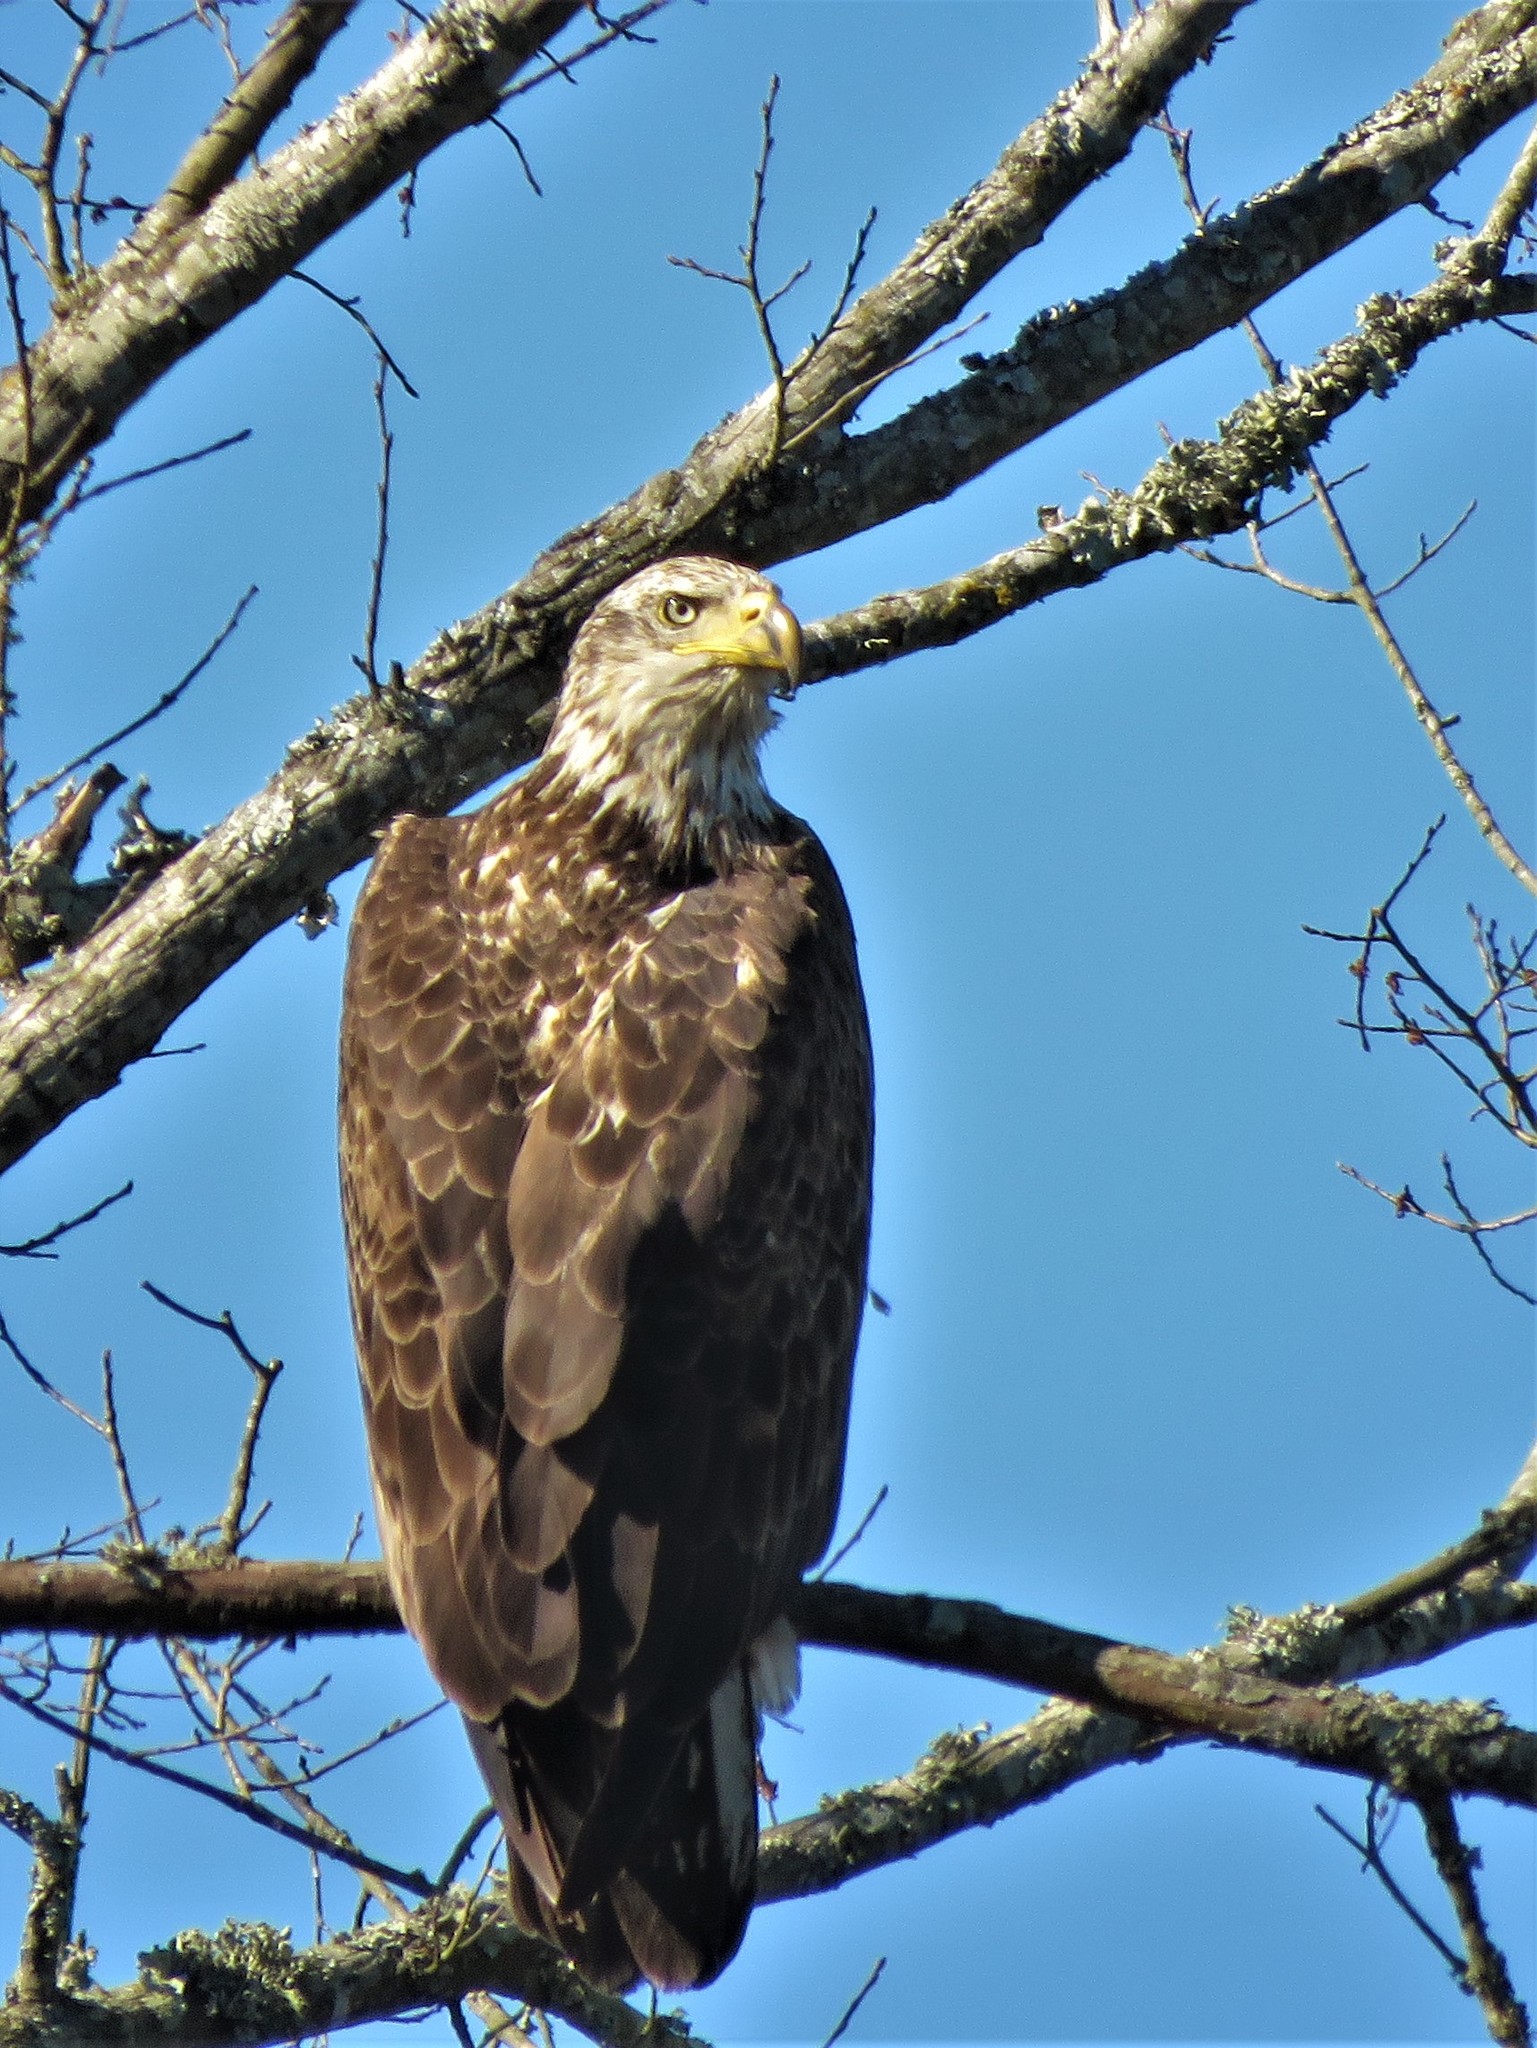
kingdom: Animalia
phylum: Chordata
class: Aves
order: Accipitriformes
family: Accipitridae
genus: Haliaeetus
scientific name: Haliaeetus leucocephalus
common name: Bald eagle
